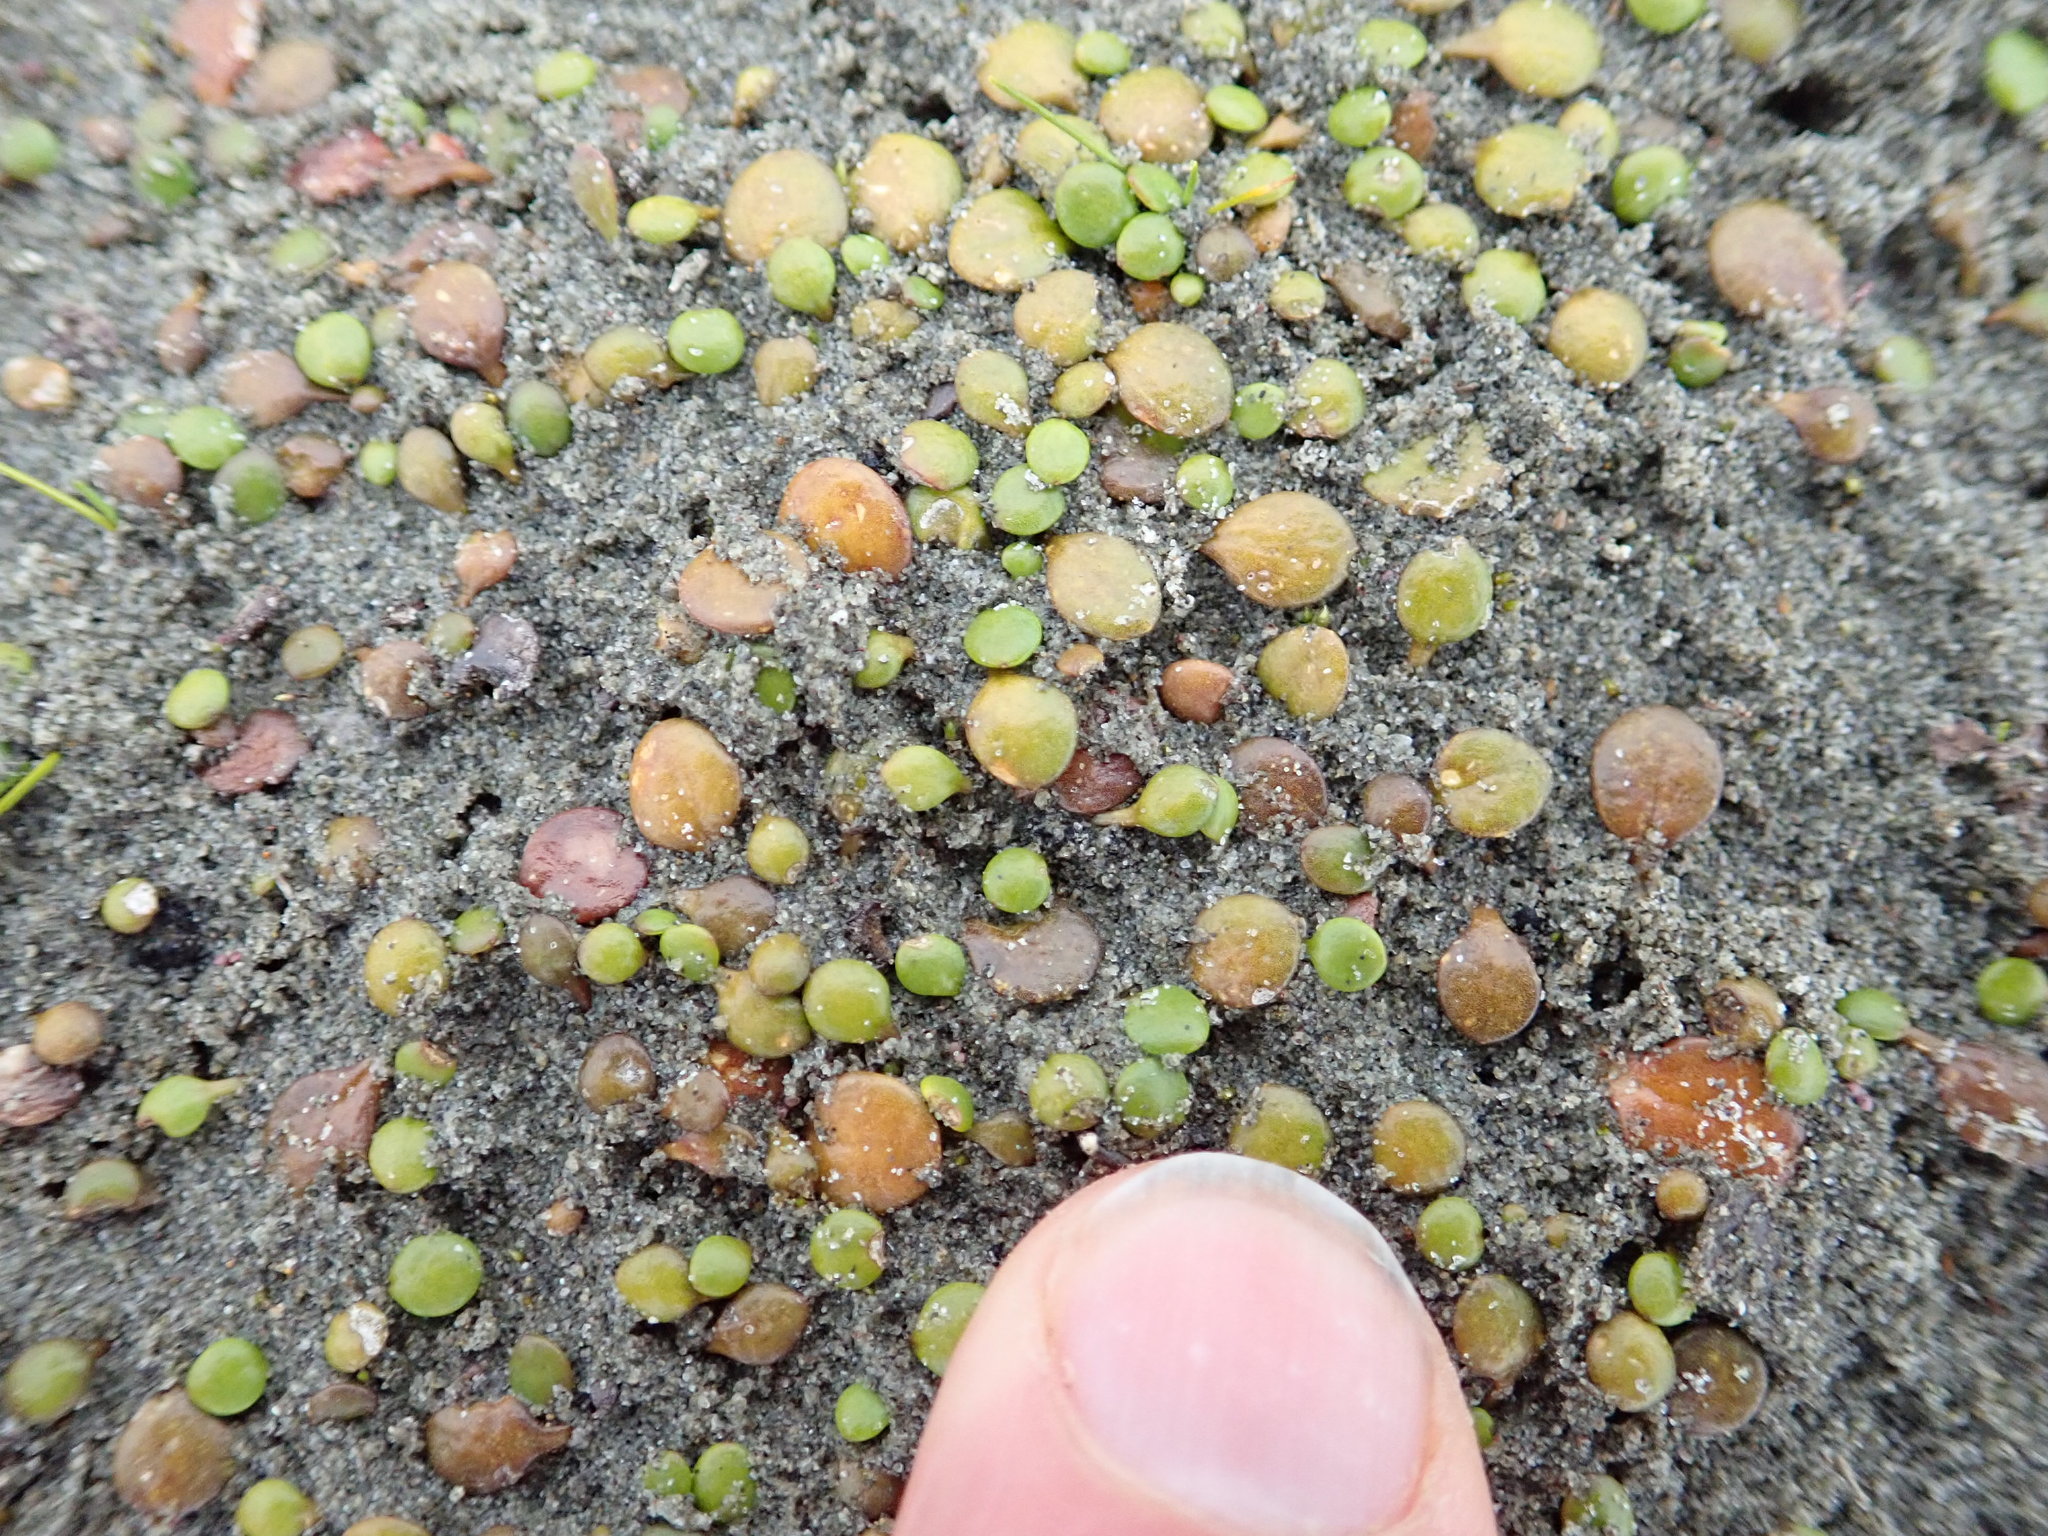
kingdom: Plantae
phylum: Tracheophyta
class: Magnoliopsida
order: Asterales
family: Goodeniaceae
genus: Goodenia
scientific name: Goodenia heenanii
